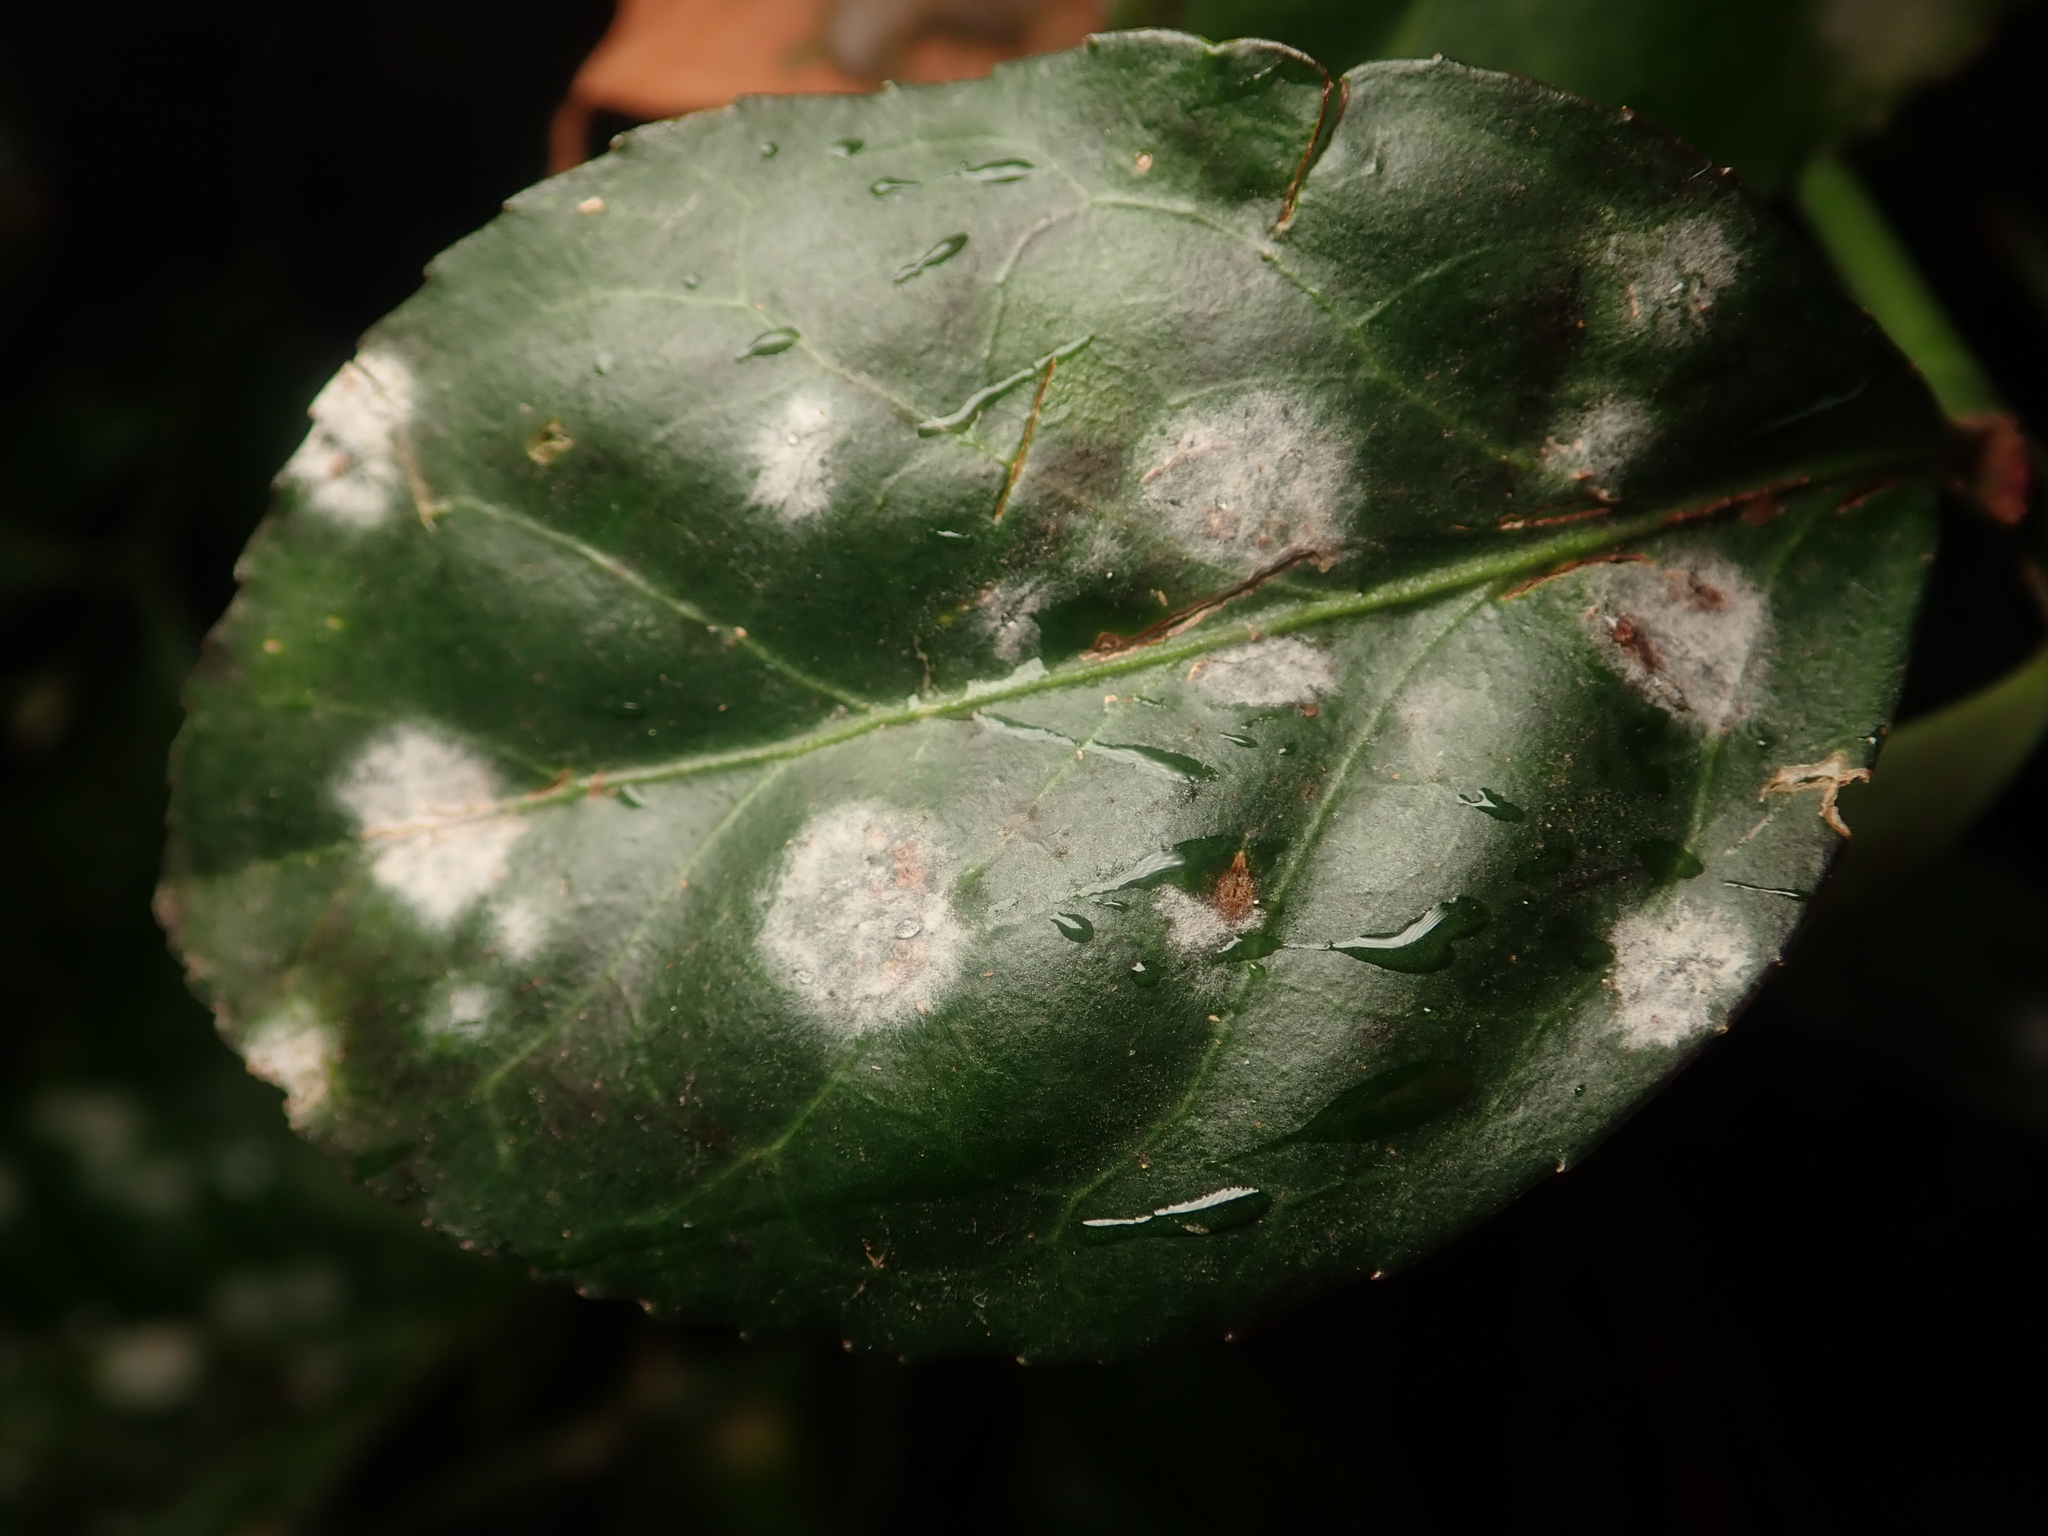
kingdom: Fungi
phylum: Ascomycota
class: Leotiomycetes
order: Helotiales
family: Erysiphaceae
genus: Erysiphe
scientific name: Erysiphe euonymicola
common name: Spindletree mildew
